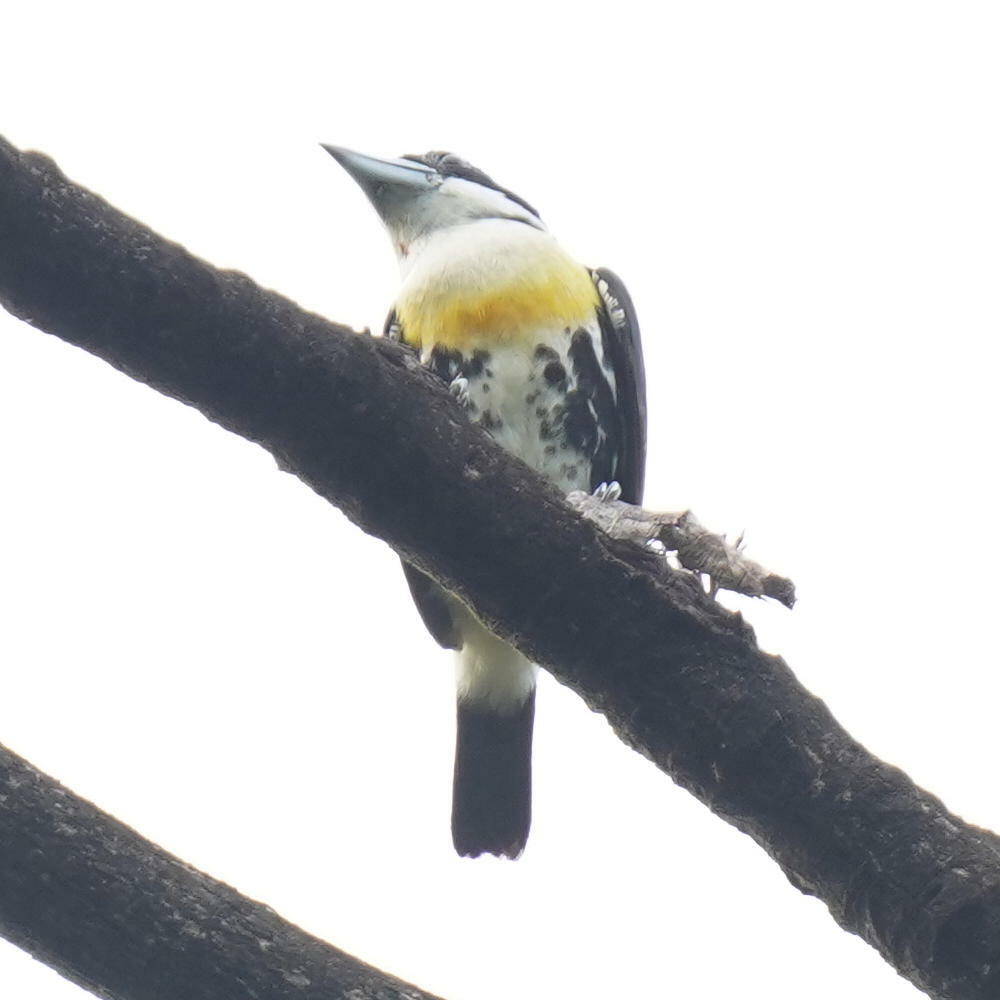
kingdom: Animalia
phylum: Chordata
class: Aves
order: Piciformes
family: Capitonidae
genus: Capito
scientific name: Capito maculicoronatus
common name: Spot-crowned barbet
